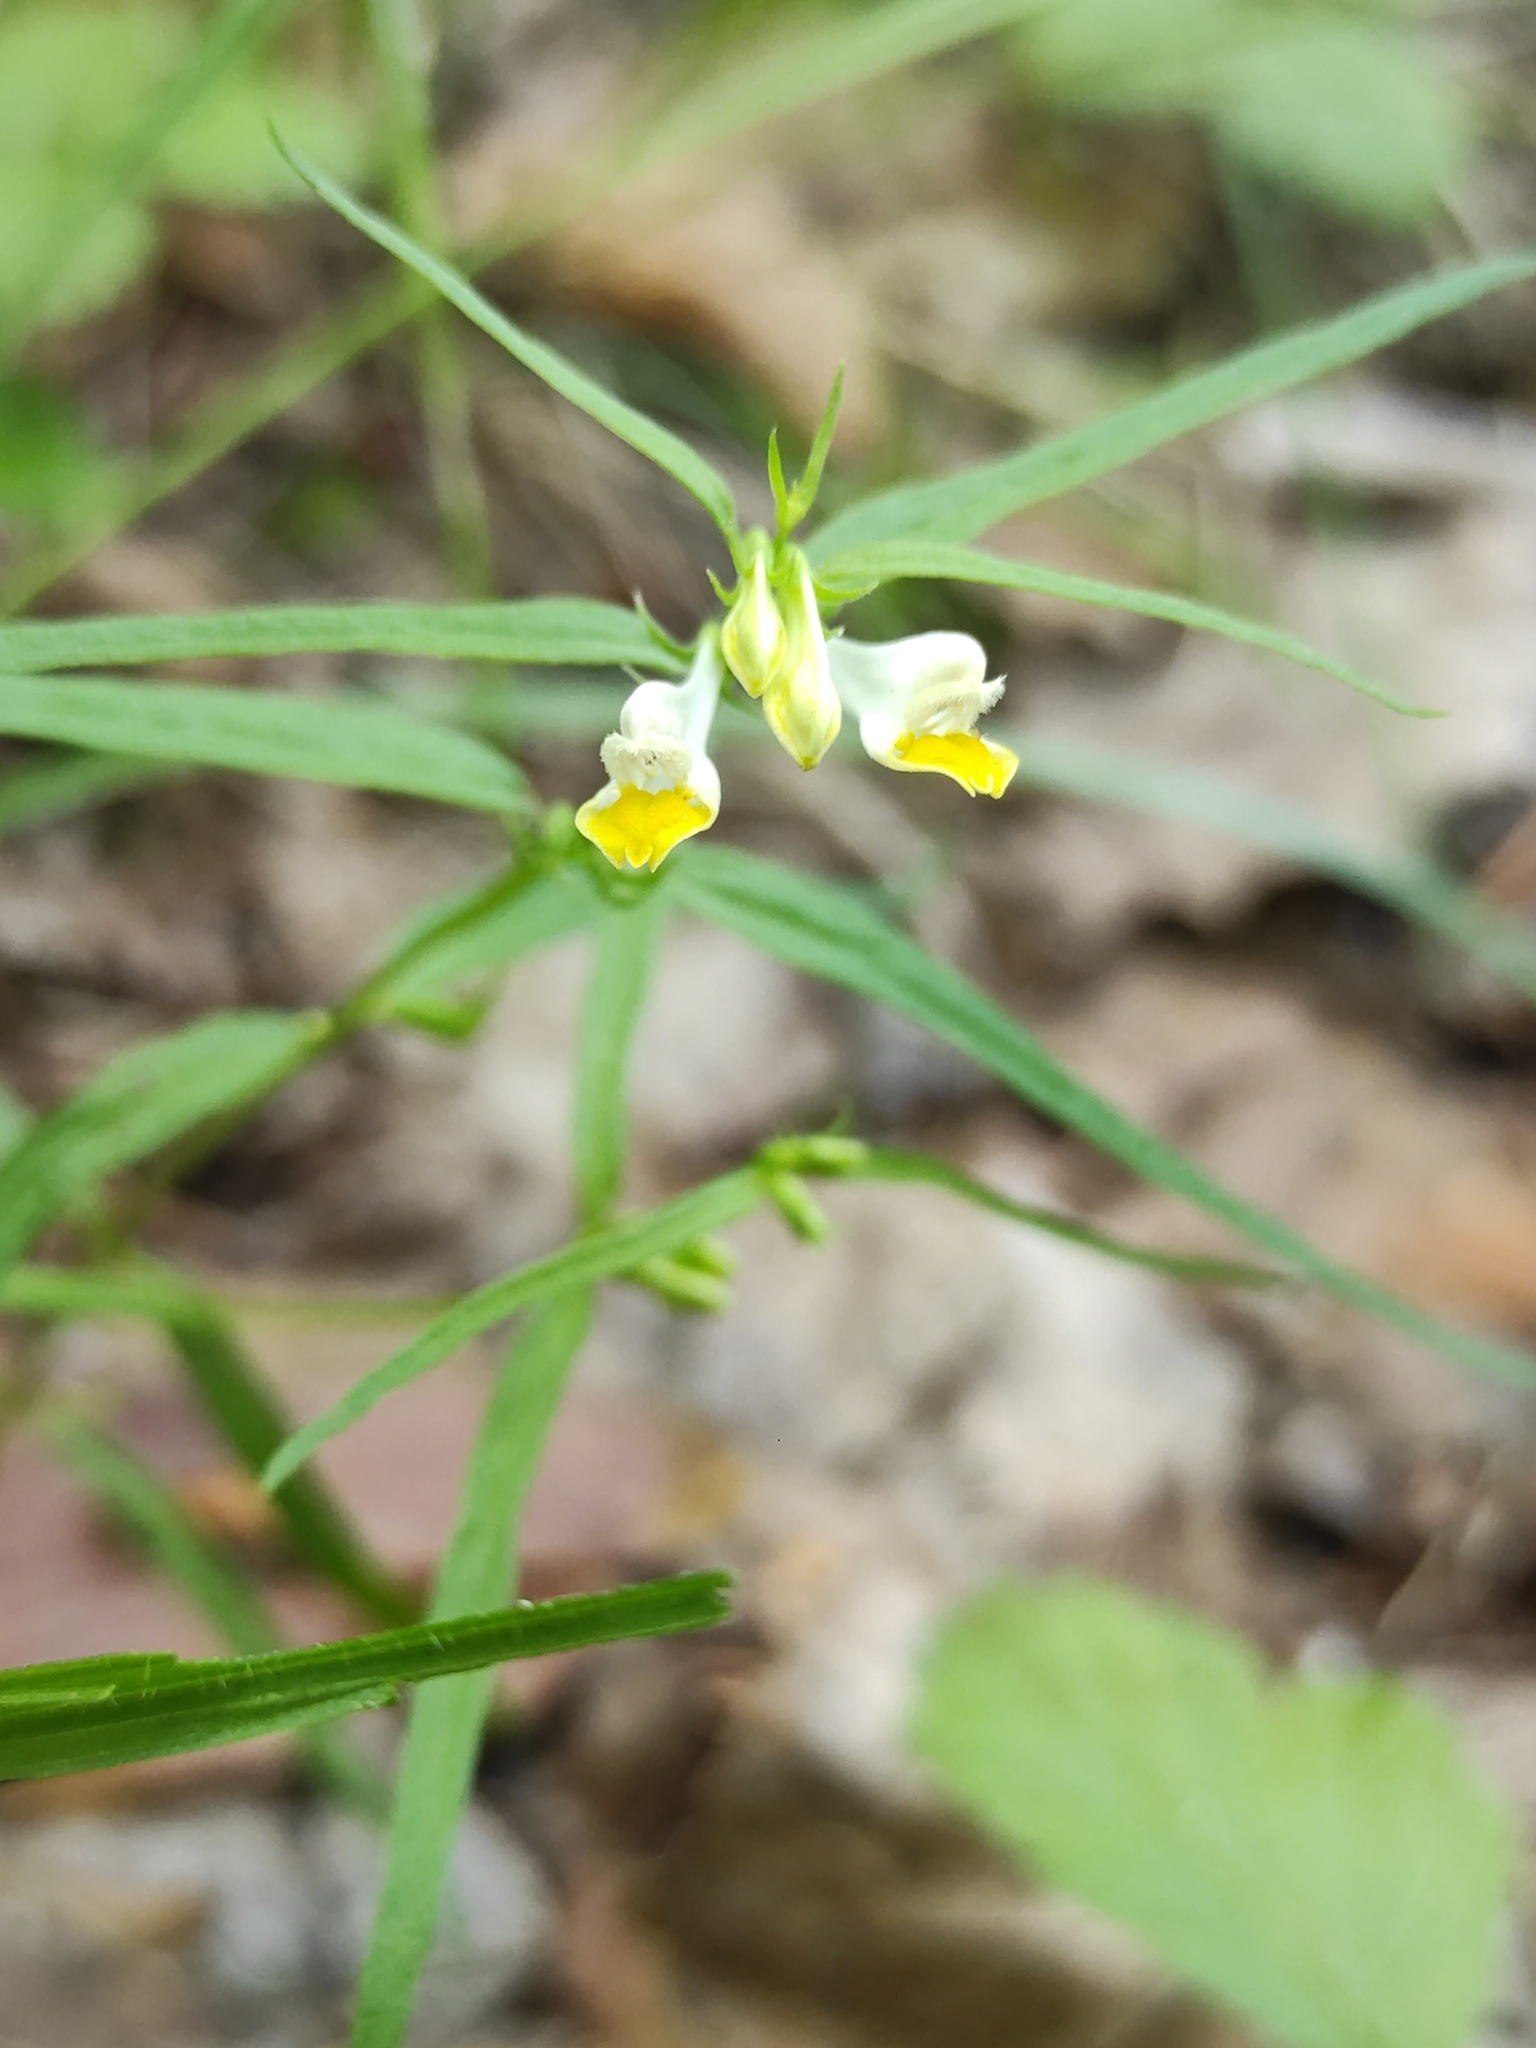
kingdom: Plantae
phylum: Tracheophyta
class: Magnoliopsida
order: Lamiales
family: Orobanchaceae
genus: Melampyrum
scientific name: Melampyrum pratense
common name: Common cow-wheat
